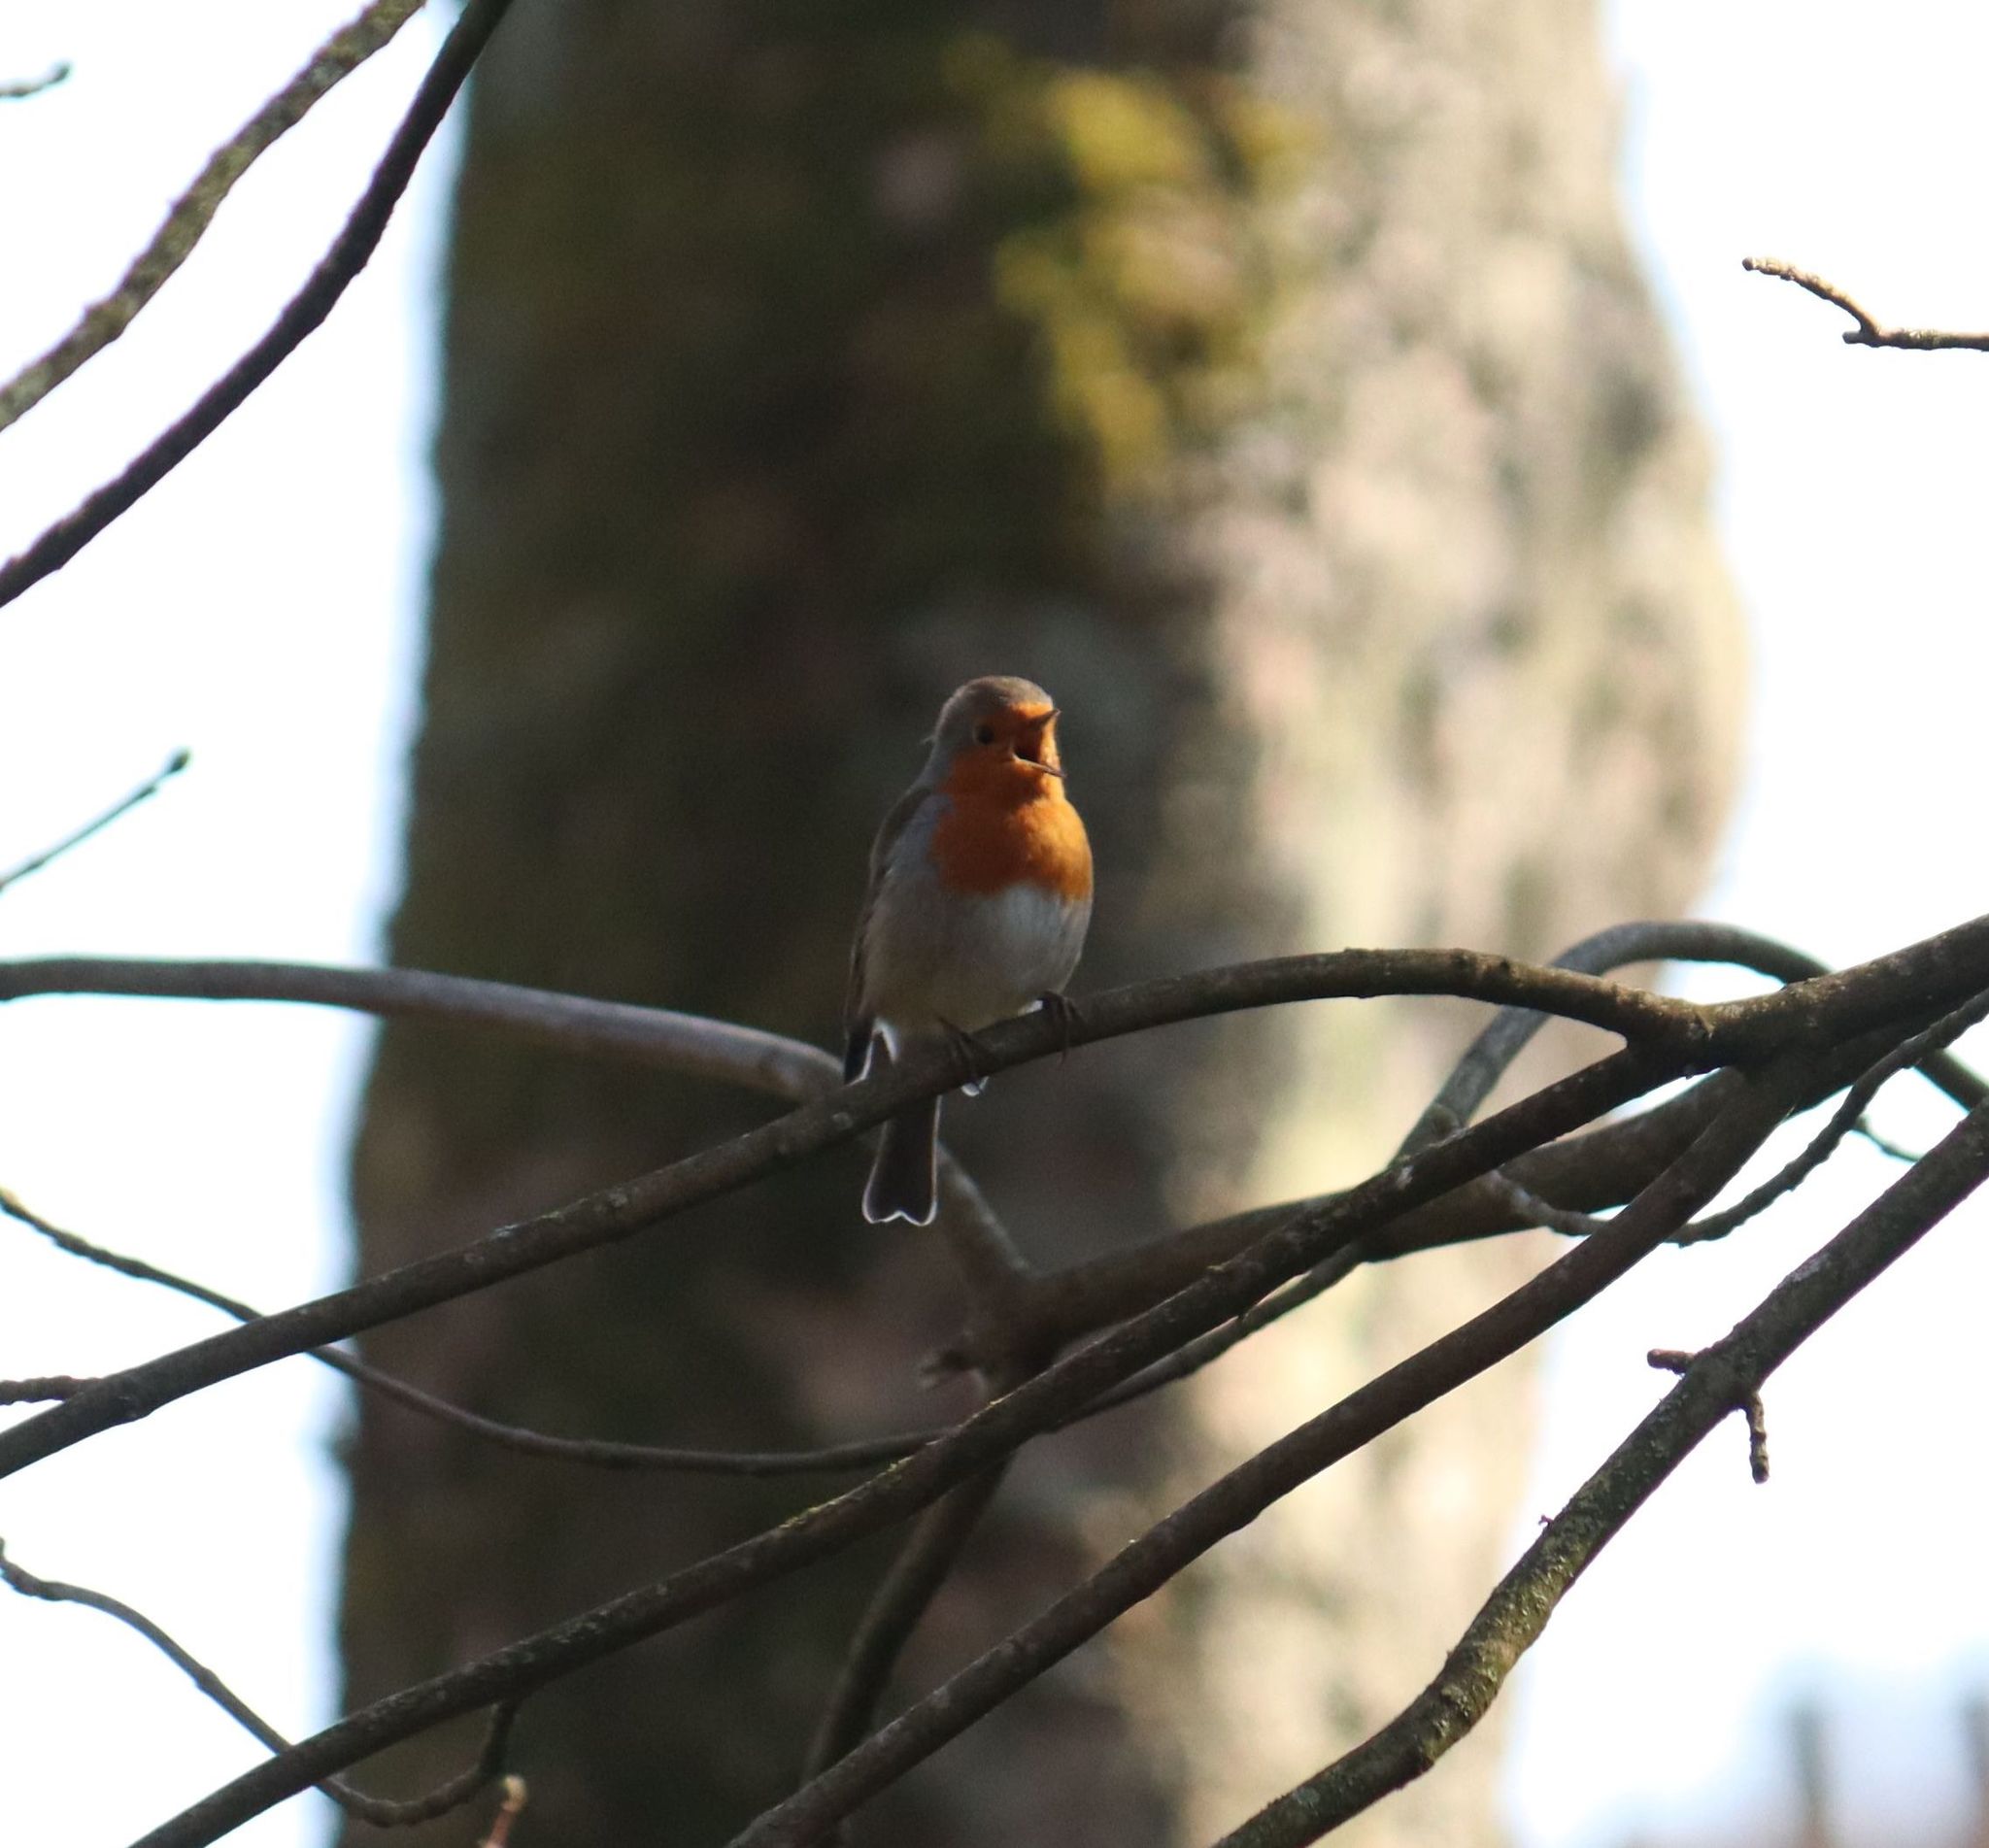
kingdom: Animalia
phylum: Chordata
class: Aves
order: Passeriformes
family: Muscicapidae
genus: Erithacus
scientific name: Erithacus rubecula
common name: European robin
